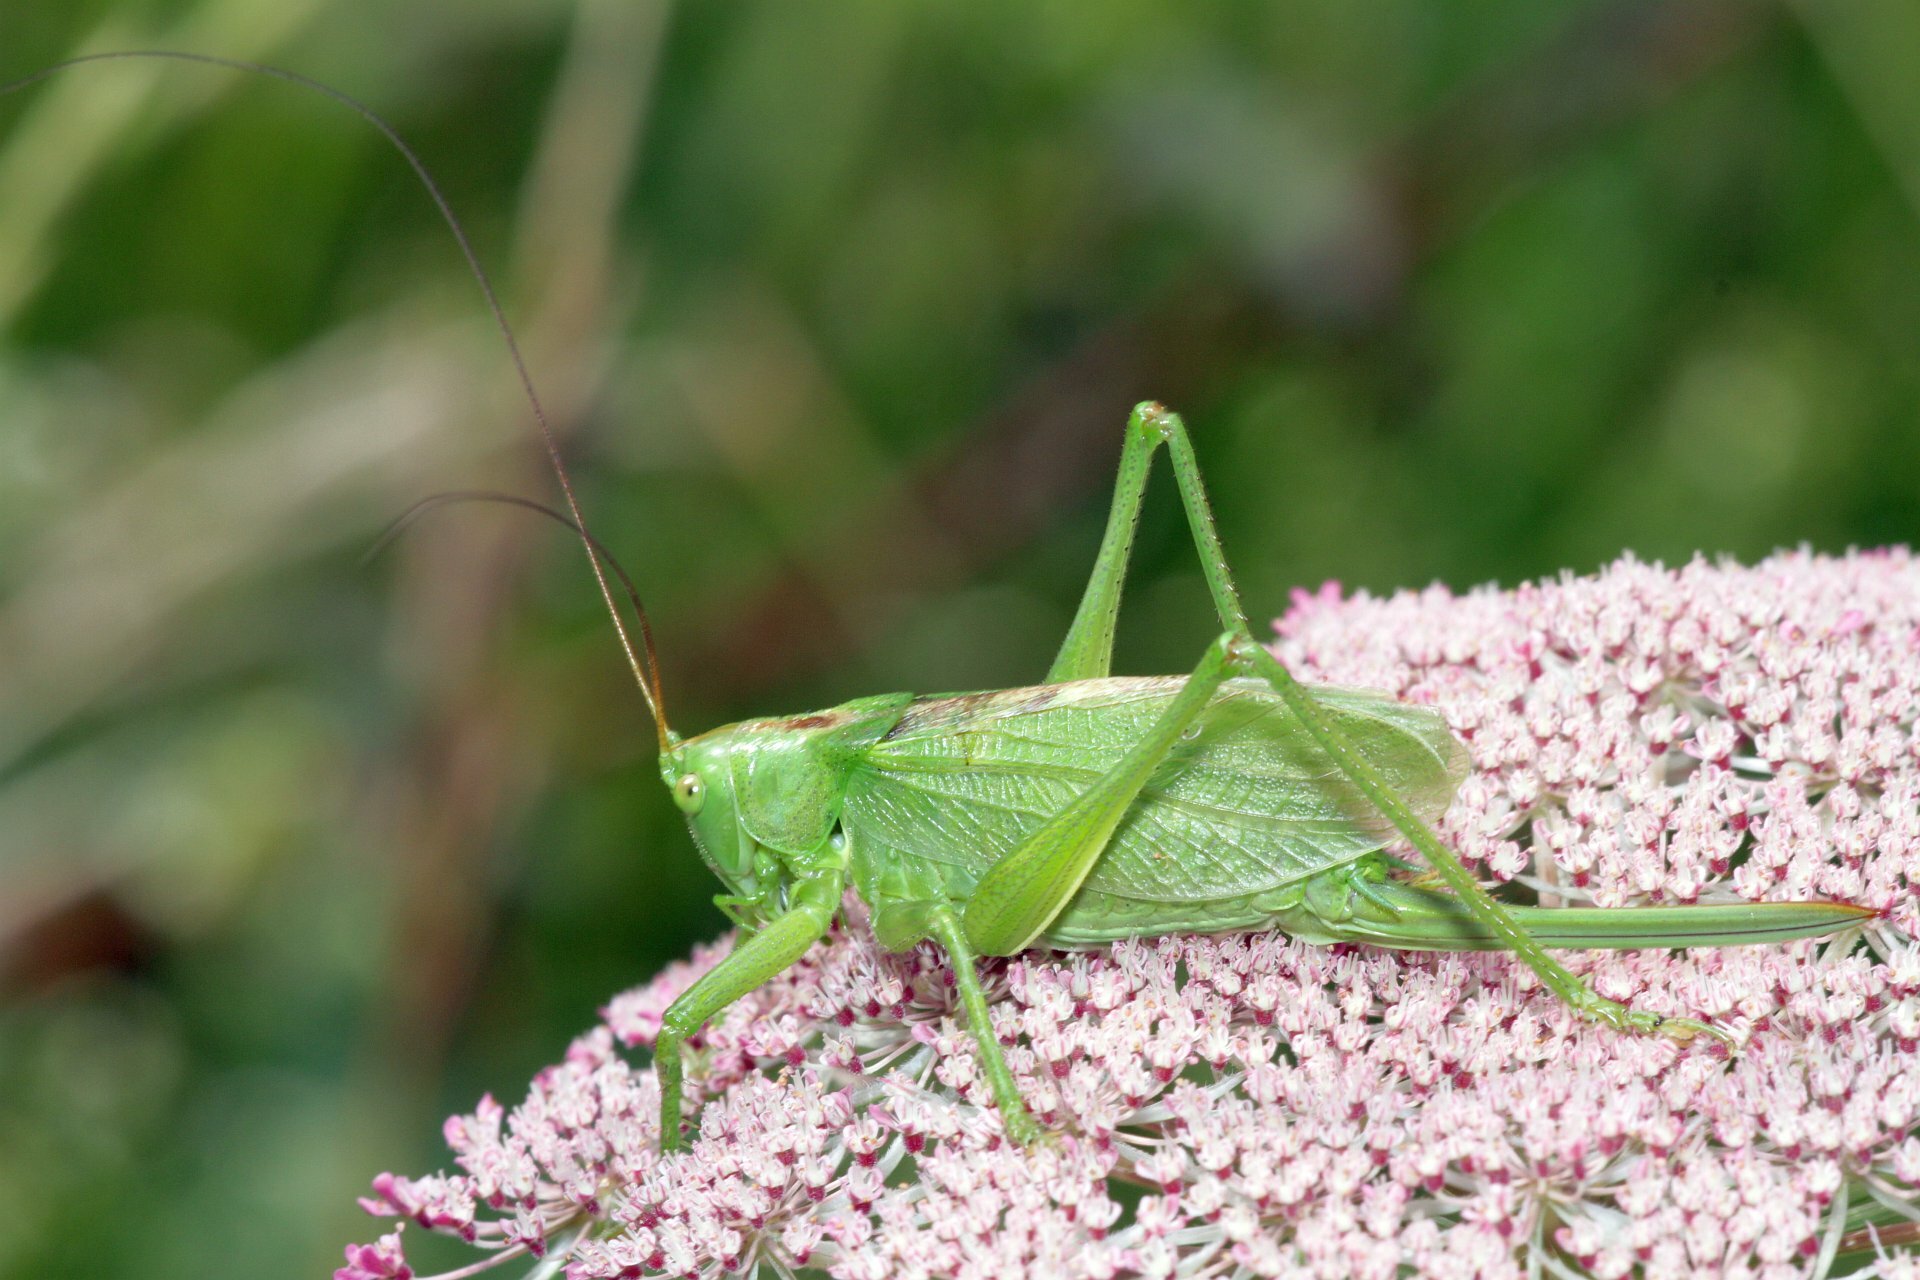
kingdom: Animalia
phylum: Arthropoda
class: Insecta
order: Orthoptera
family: Tettigoniidae
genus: Tettigonia
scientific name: Tettigonia cantans
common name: Upland green bush-cricket
